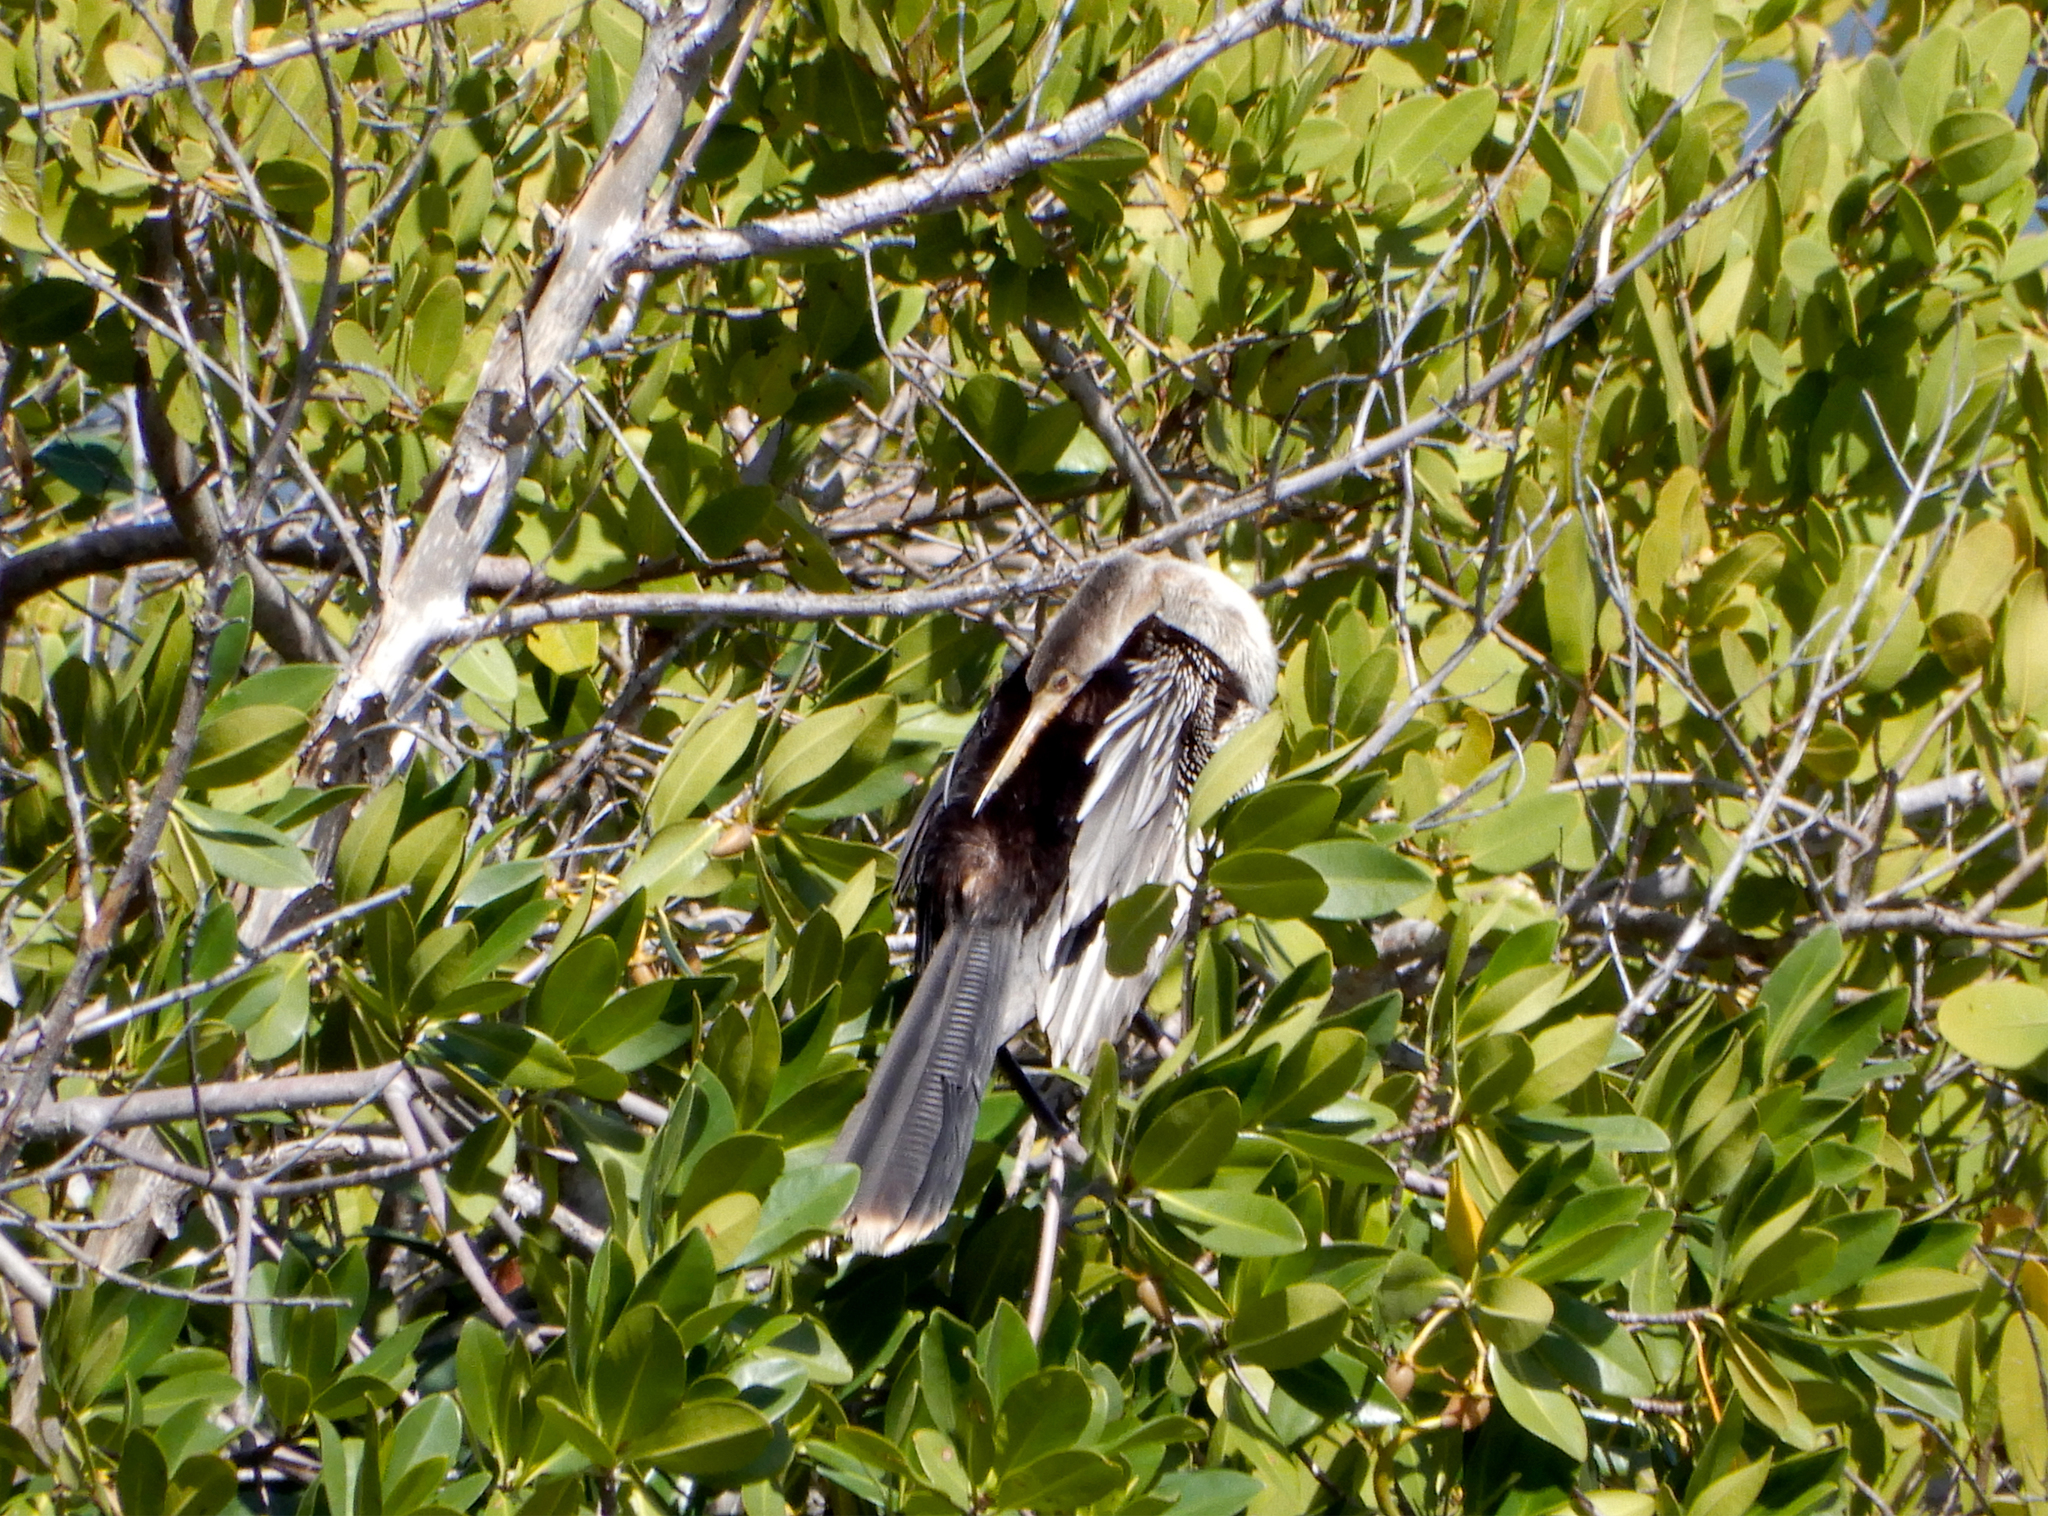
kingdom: Animalia
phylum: Chordata
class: Aves
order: Suliformes
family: Anhingidae
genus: Anhinga
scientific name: Anhinga anhinga
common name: Anhinga
